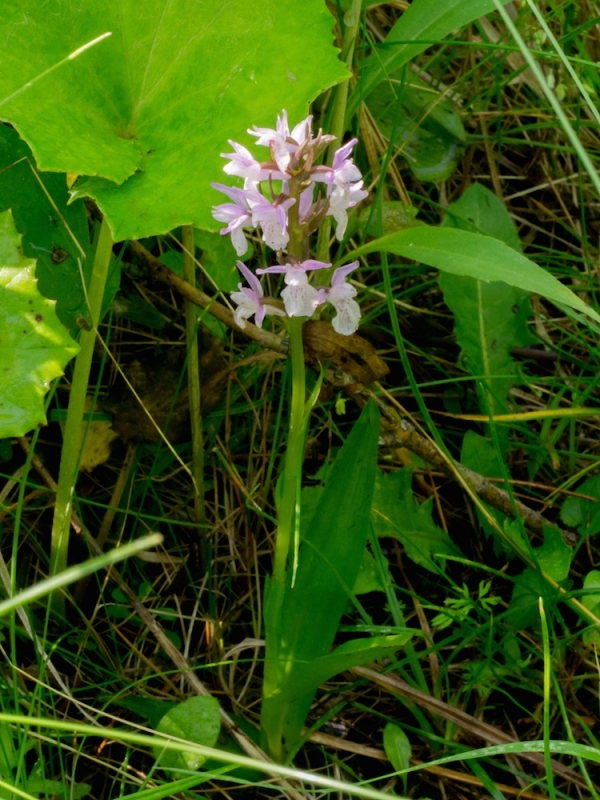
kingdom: Plantae
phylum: Tracheophyta
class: Liliopsida
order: Asparagales
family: Orchidaceae
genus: Dactylorhiza
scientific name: Dactylorhiza incarnata
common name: Early marsh-orchid
